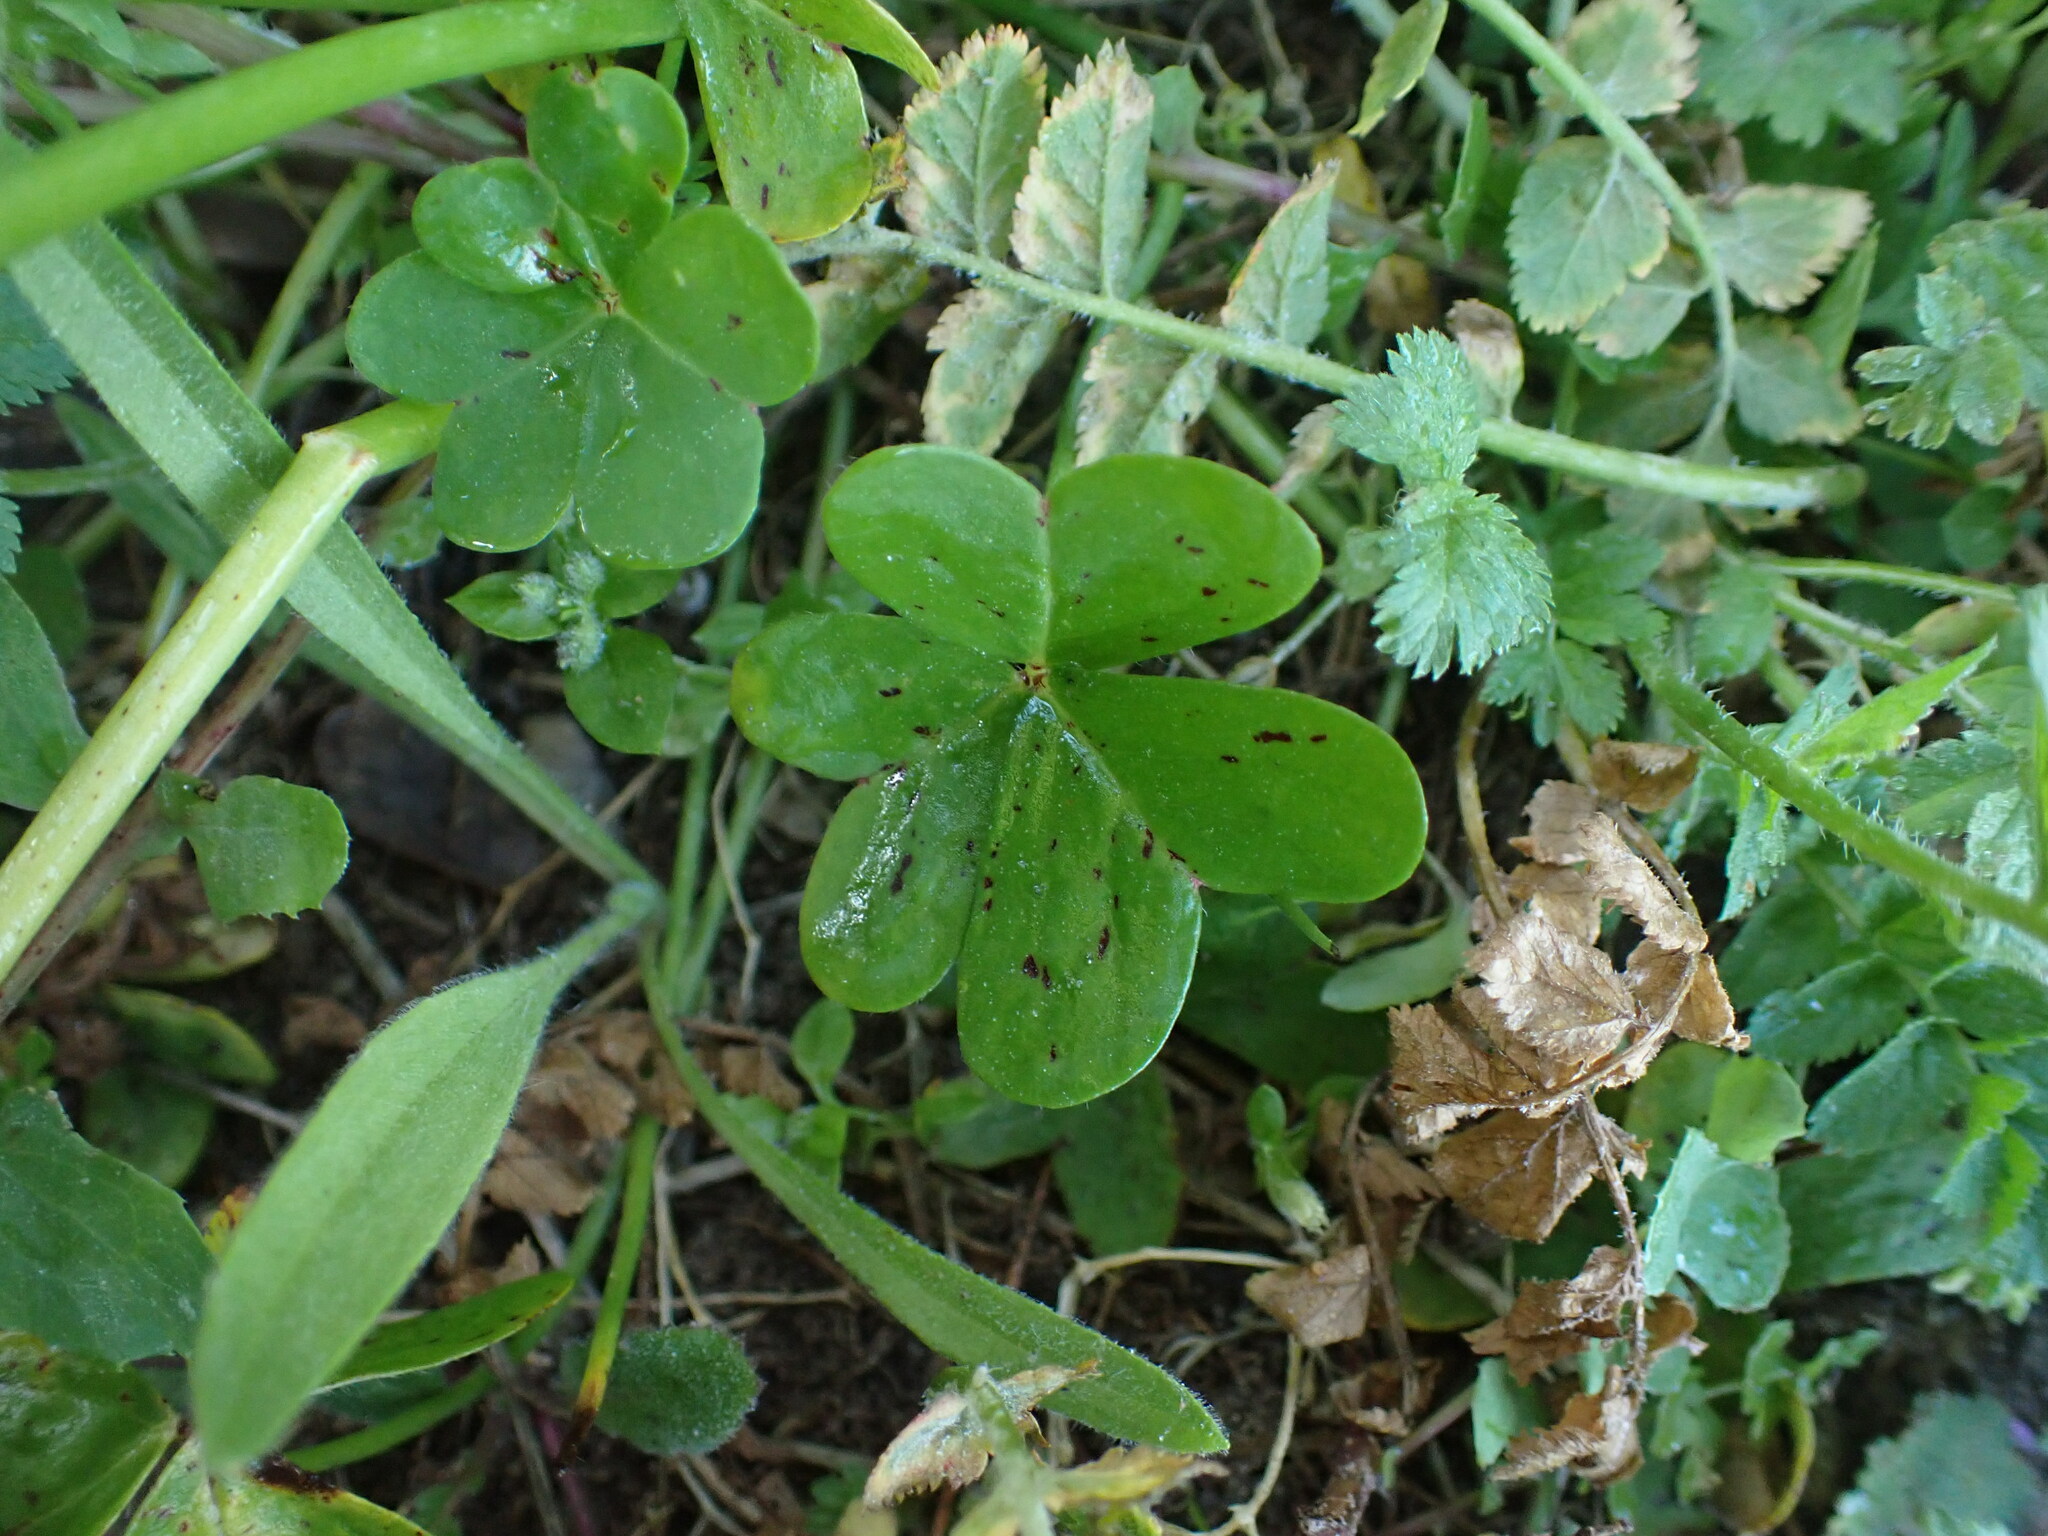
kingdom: Plantae
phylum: Tracheophyta
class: Magnoliopsida
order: Oxalidales
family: Oxalidaceae
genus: Oxalis
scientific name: Oxalis pes-caprae
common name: Bermuda-buttercup
